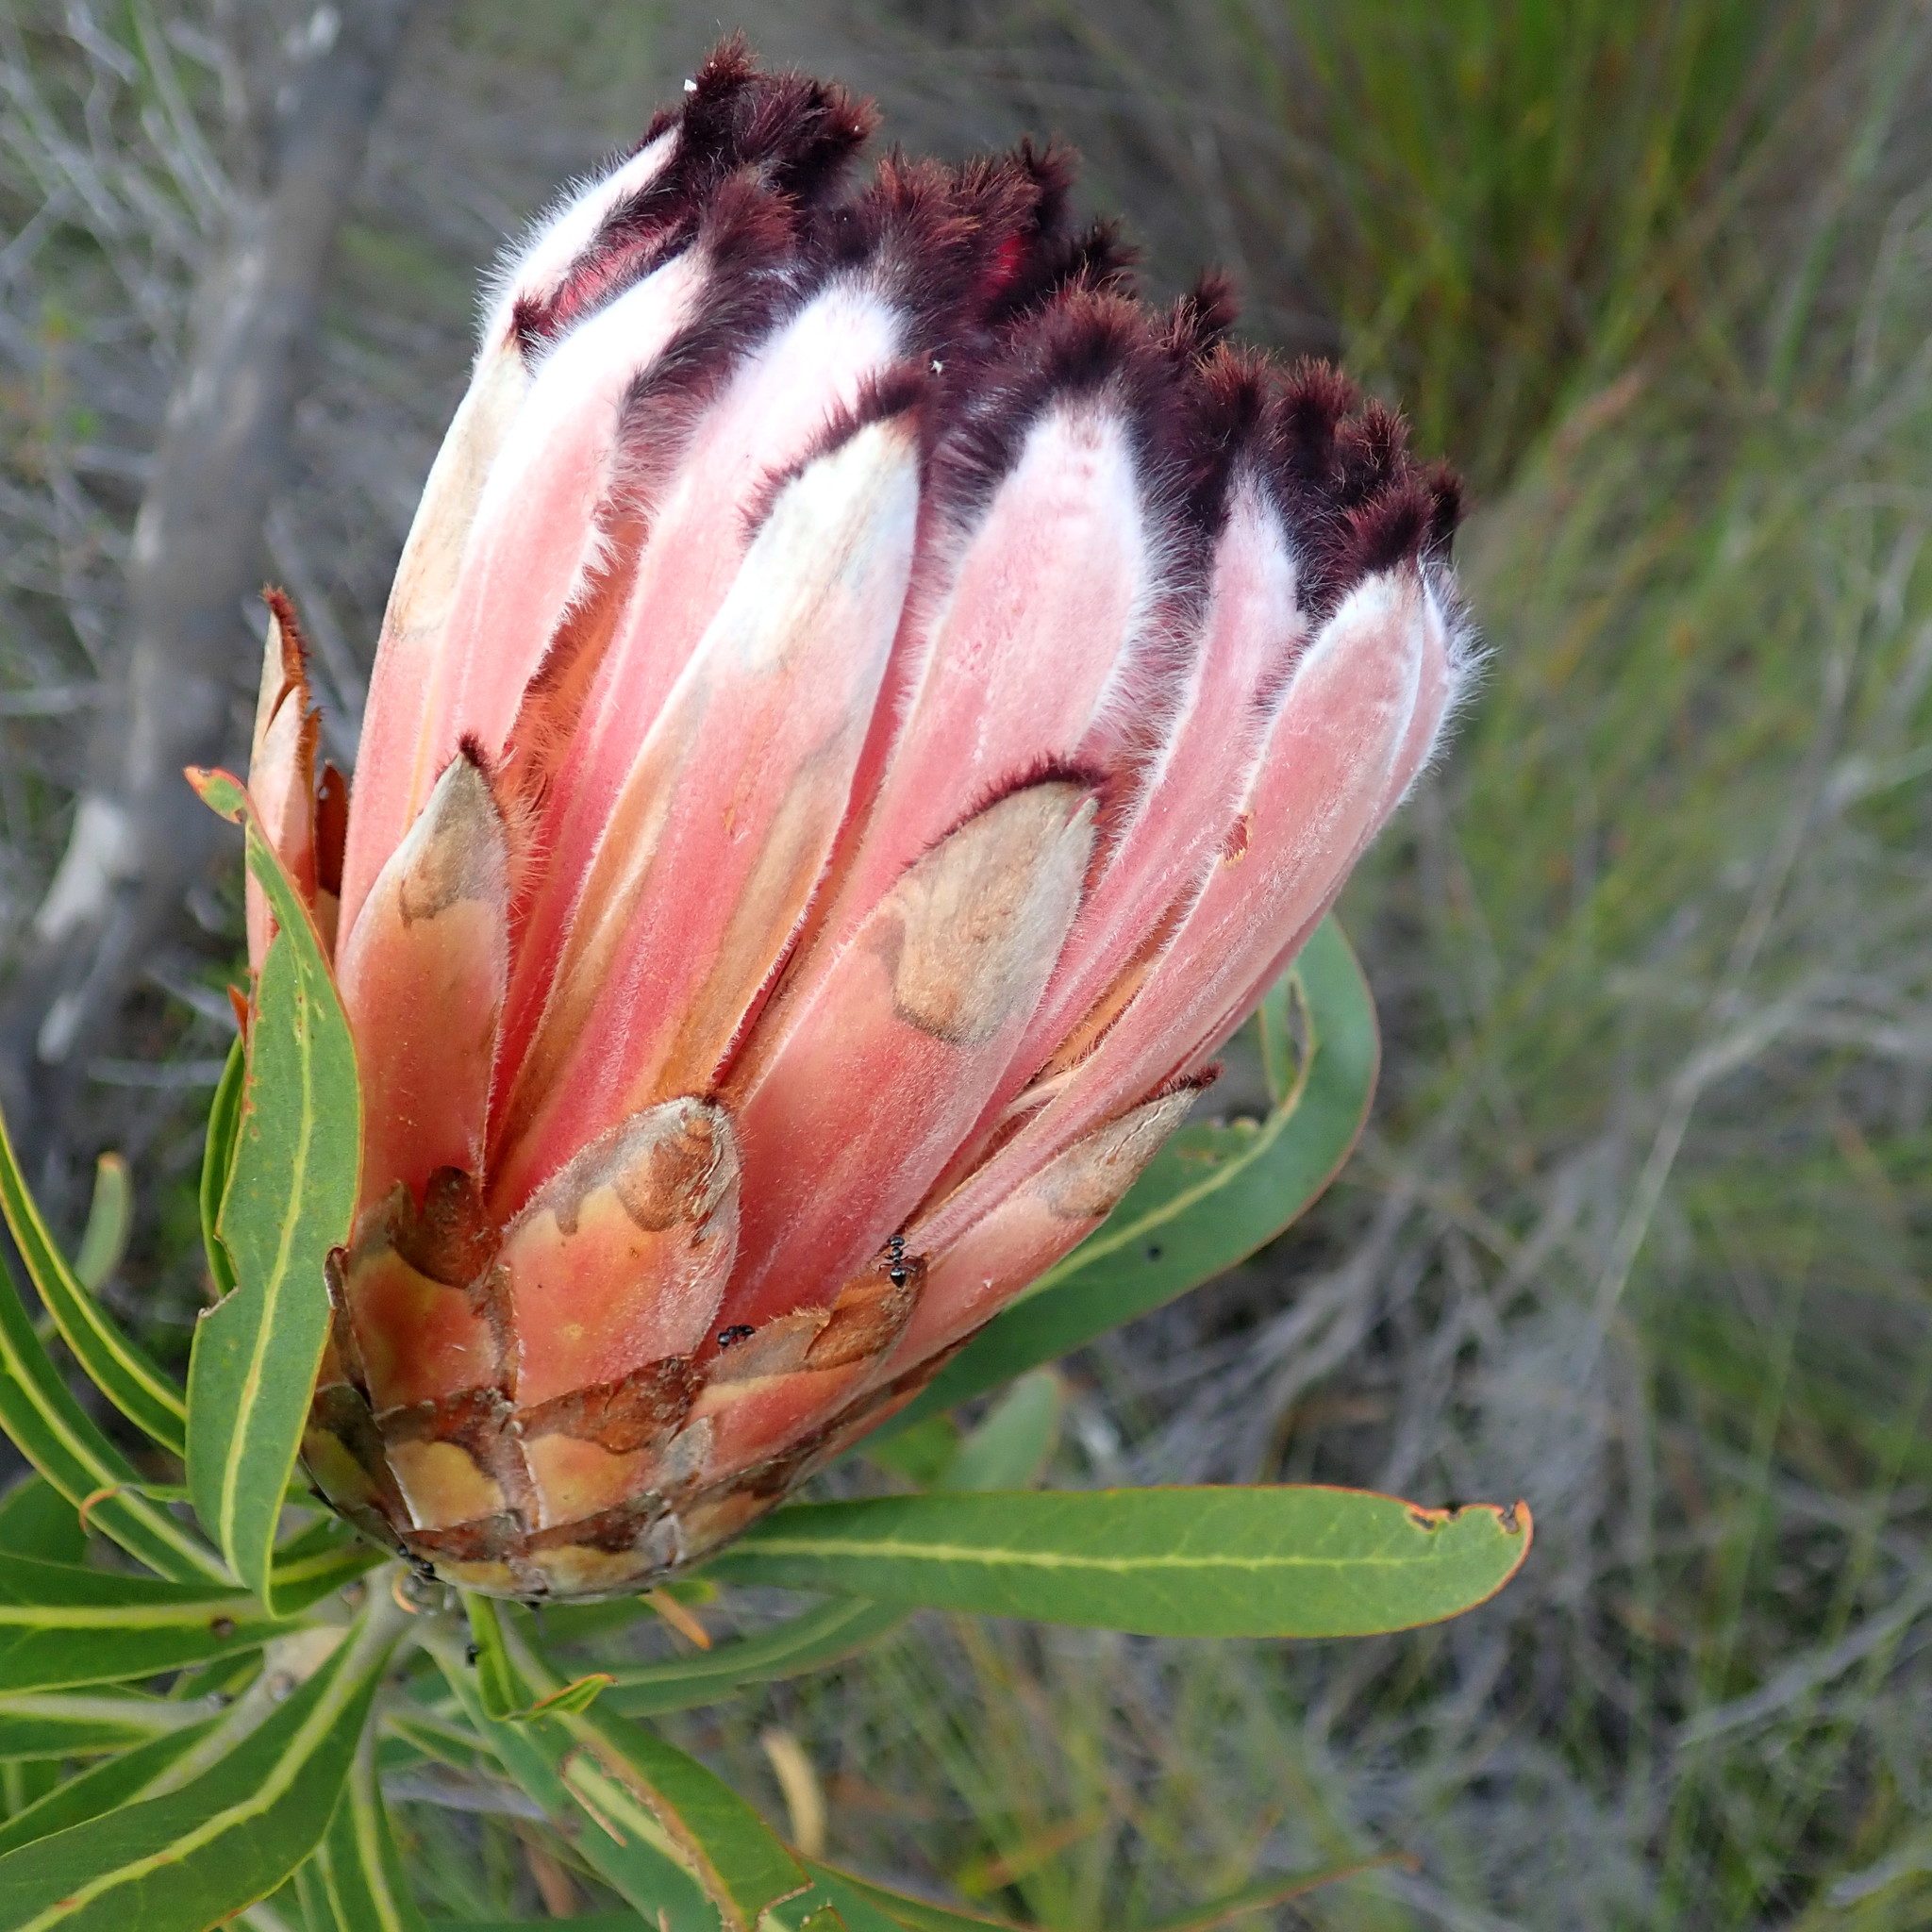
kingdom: Plantae
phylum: Tracheophyta
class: Magnoliopsida
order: Proteales
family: Proteaceae
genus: Protea
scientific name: Protea neriifolia
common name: Blue sugarbush
